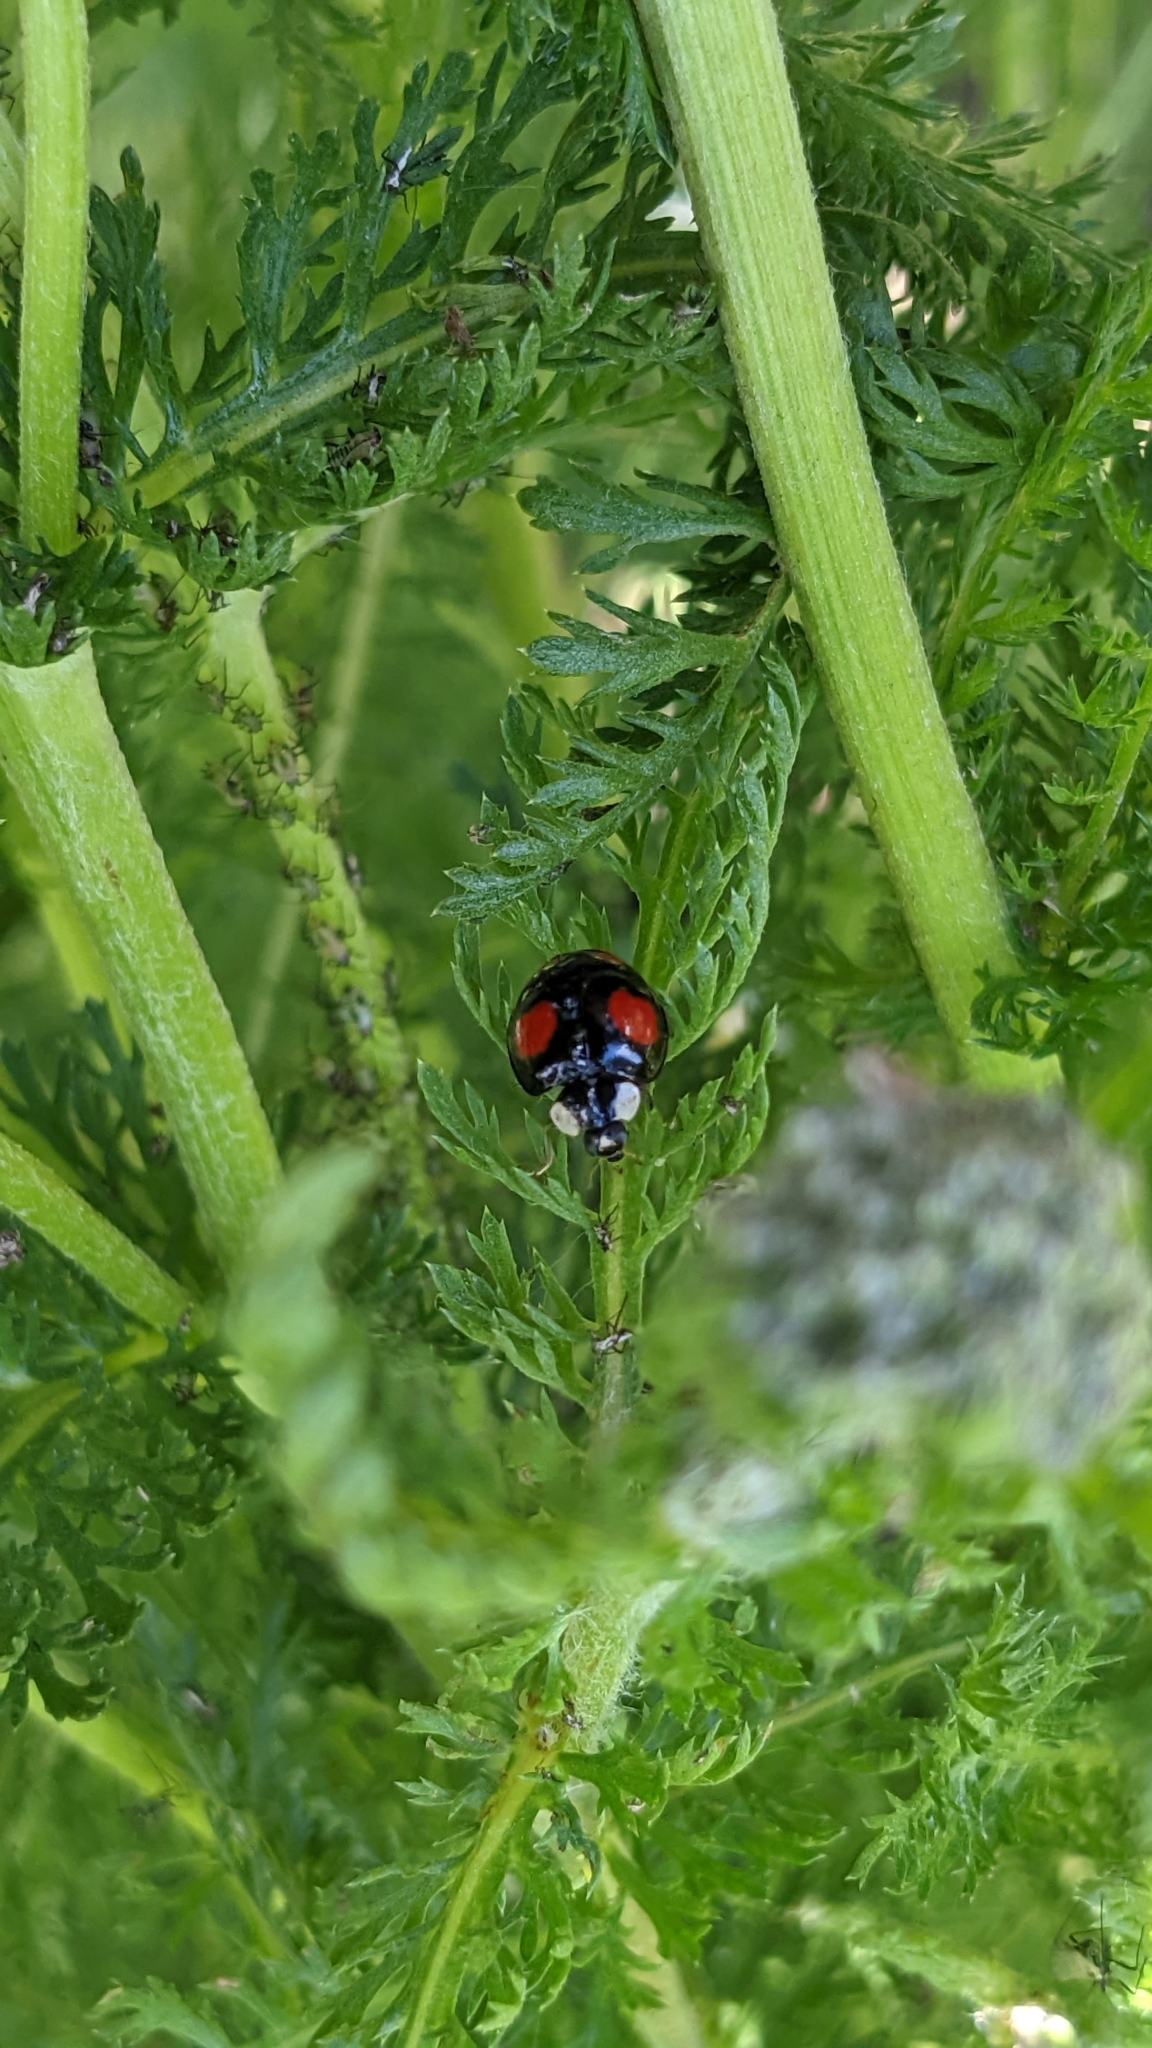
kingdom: Animalia
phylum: Arthropoda
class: Insecta
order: Coleoptera
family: Coccinellidae
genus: Harmonia
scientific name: Harmonia axyridis
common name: Harlequin ladybird
